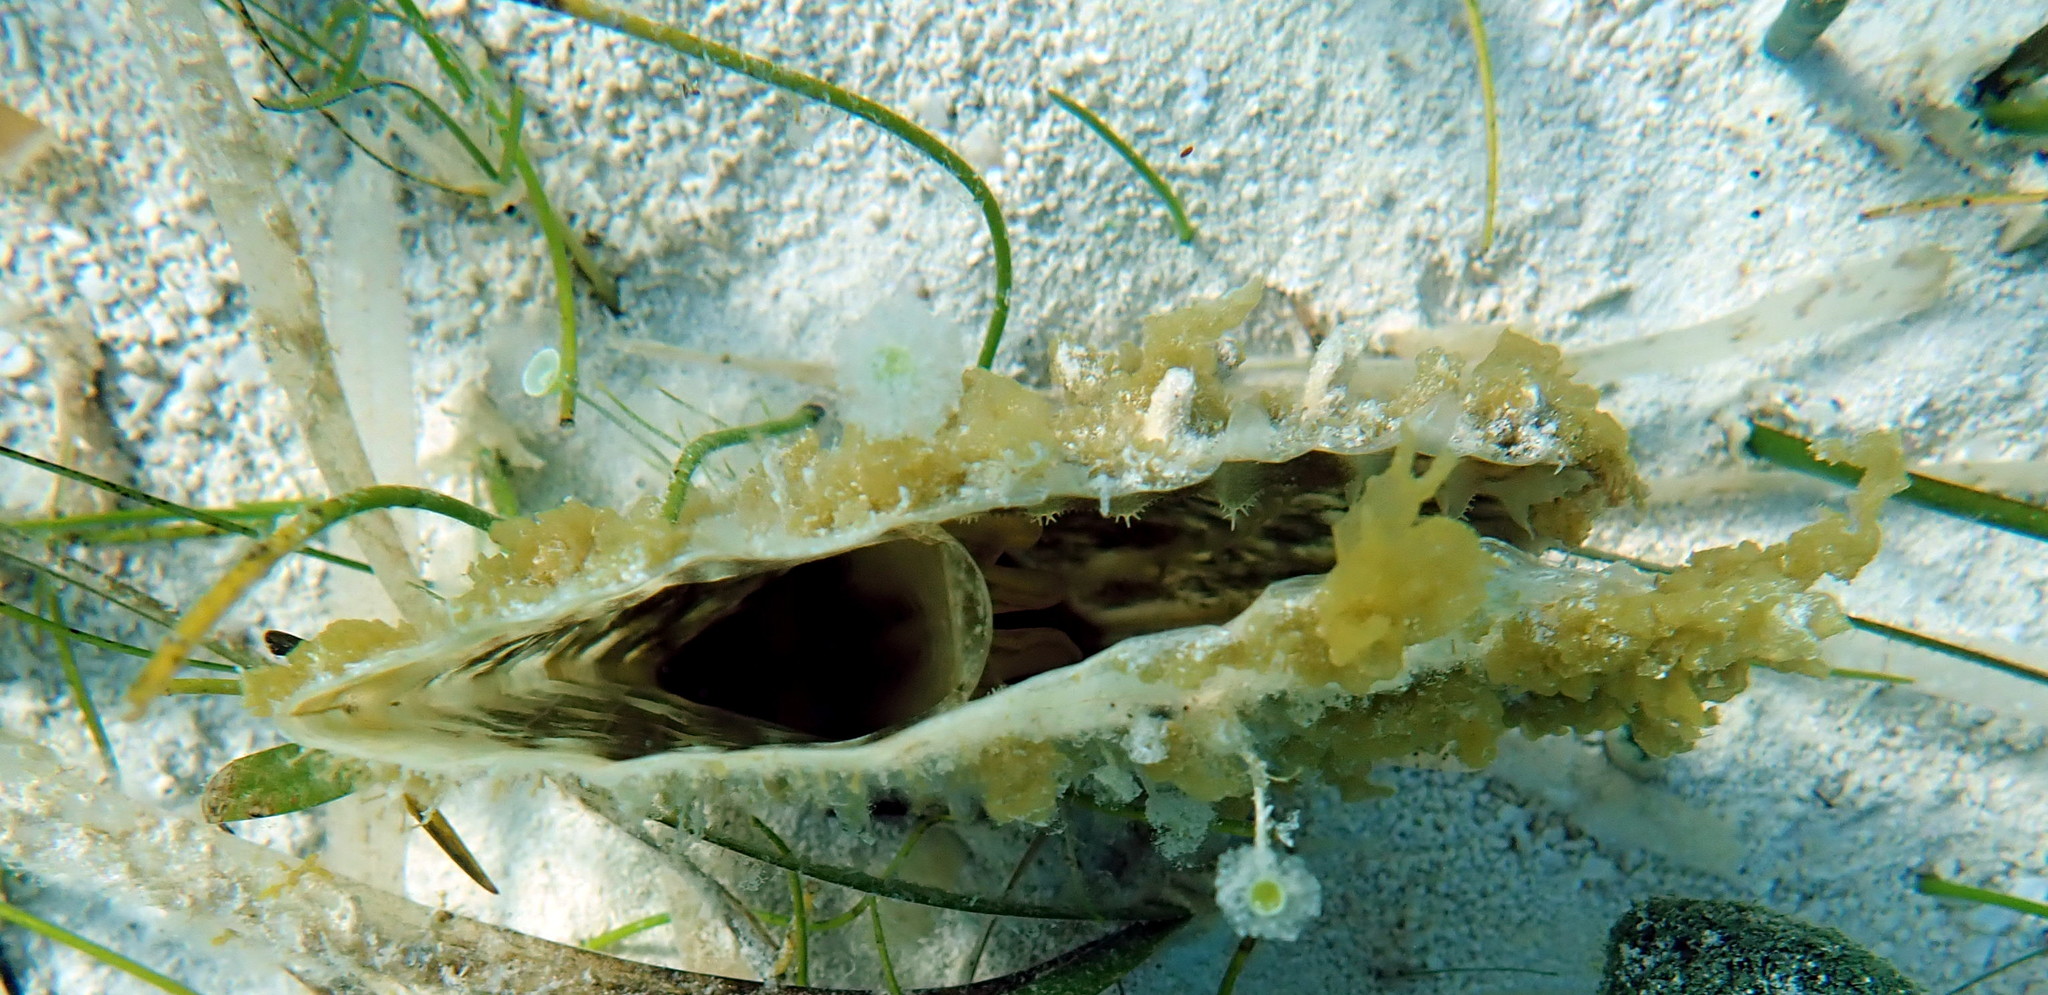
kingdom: Animalia
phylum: Mollusca
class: Bivalvia
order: Ostreida
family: Pinnidae
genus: Pinna
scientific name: Pinna carnea
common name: Amber penshell
